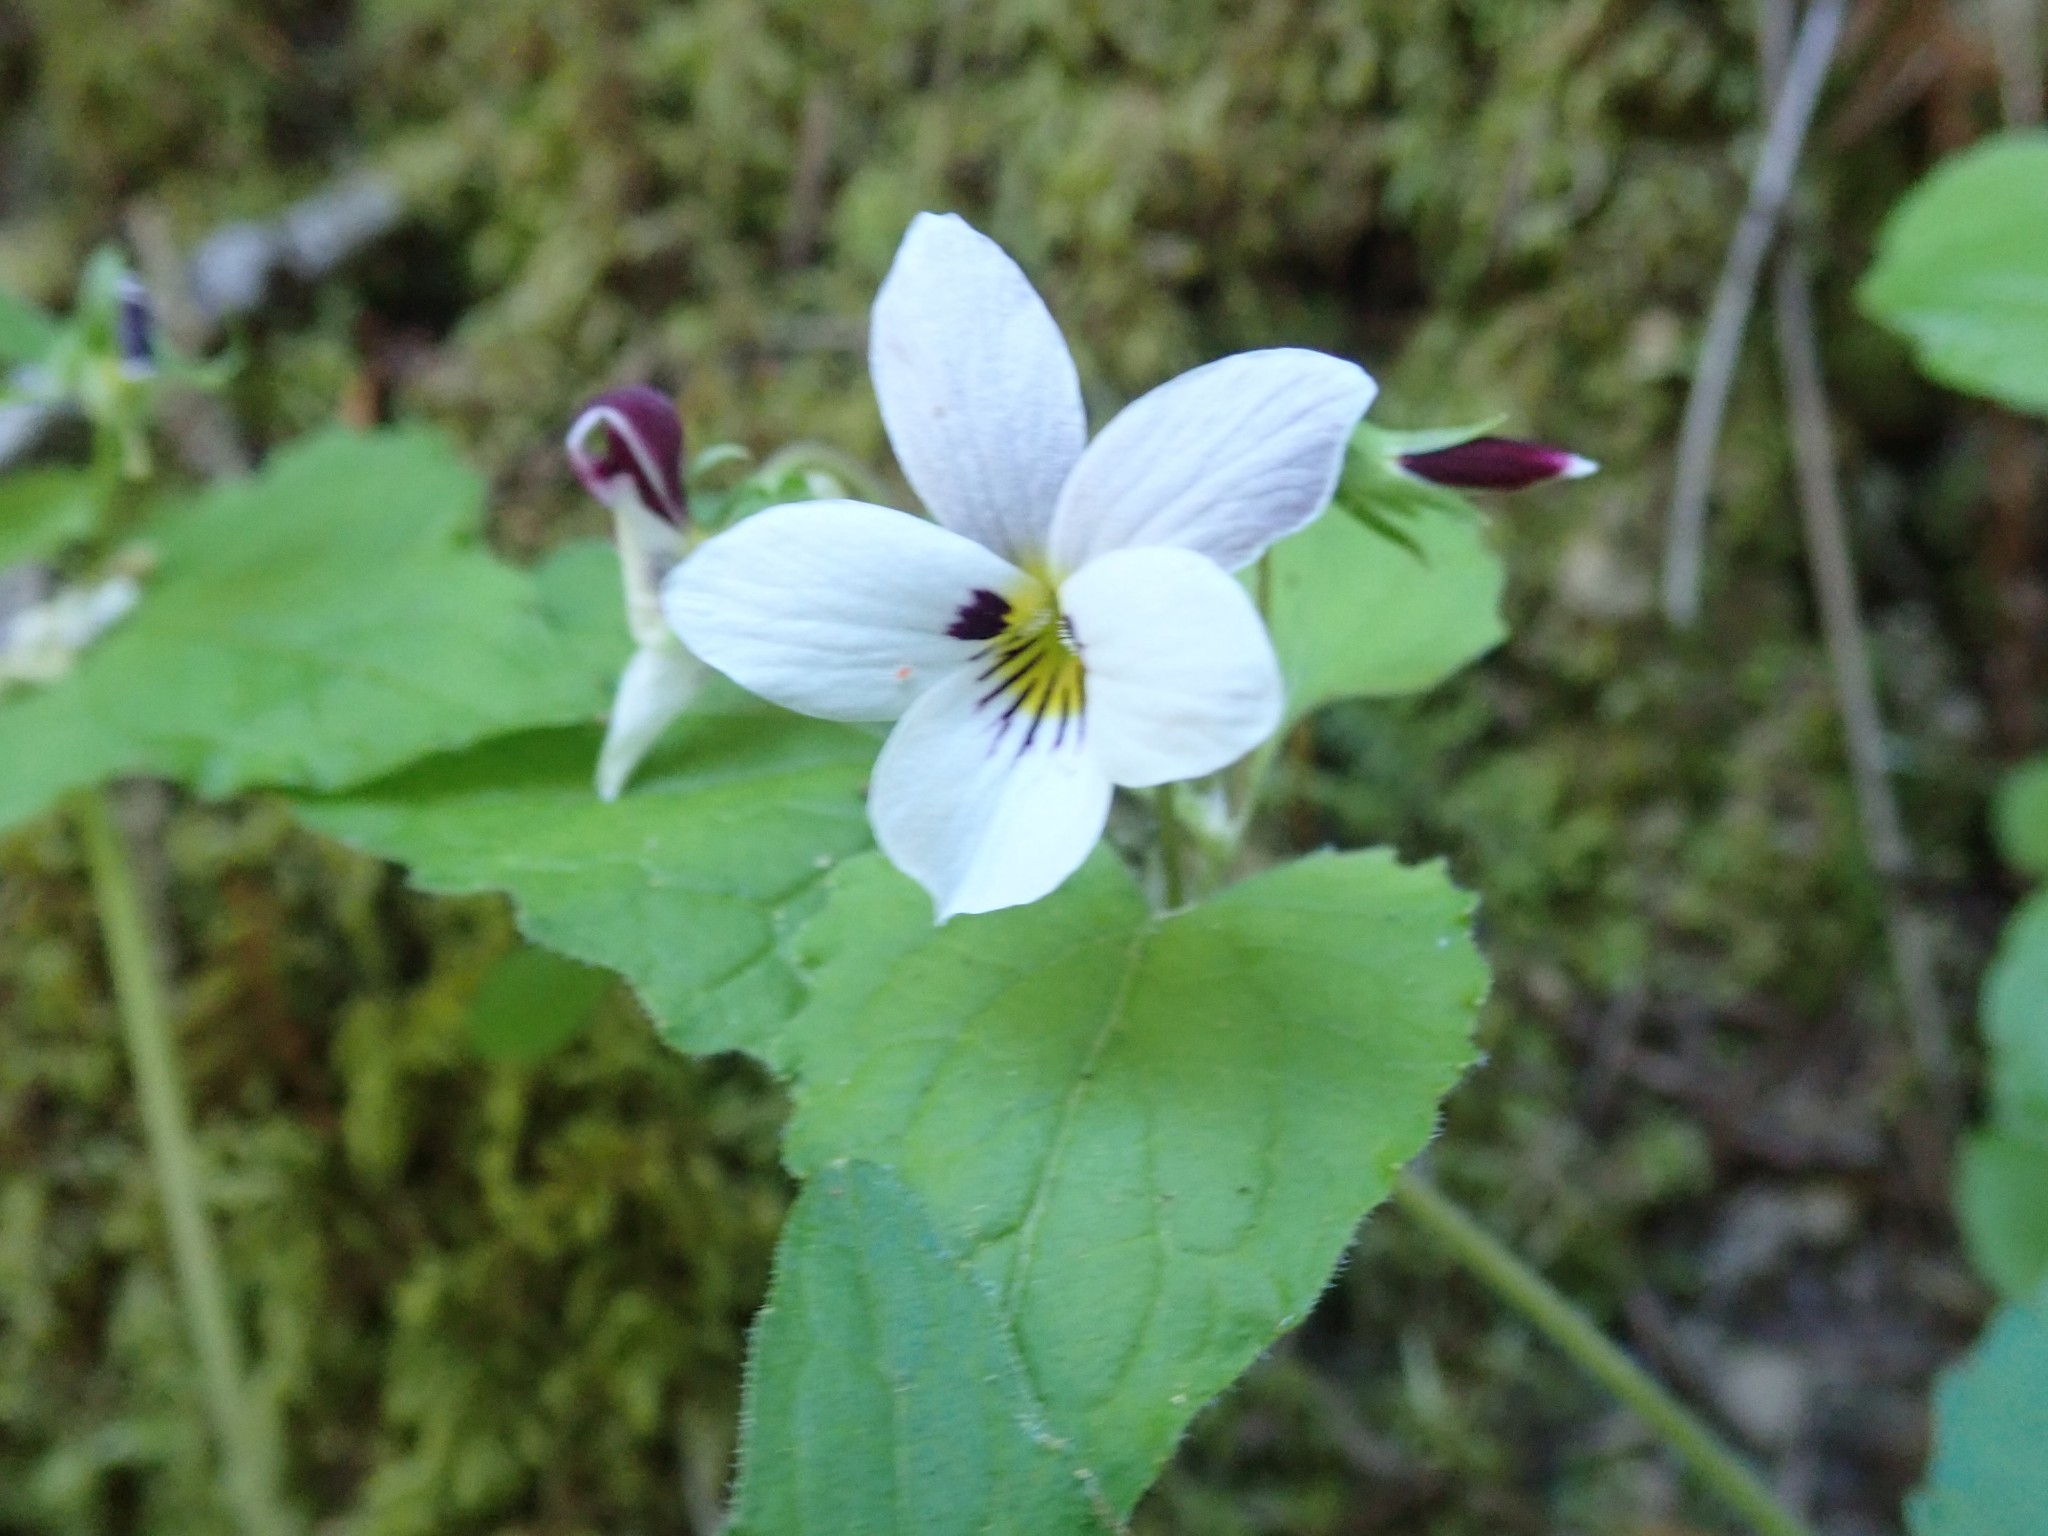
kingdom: Plantae
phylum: Tracheophyta
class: Magnoliopsida
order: Malpighiales
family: Violaceae
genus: Viola
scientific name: Viola ocellata
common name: Western heart's ease
